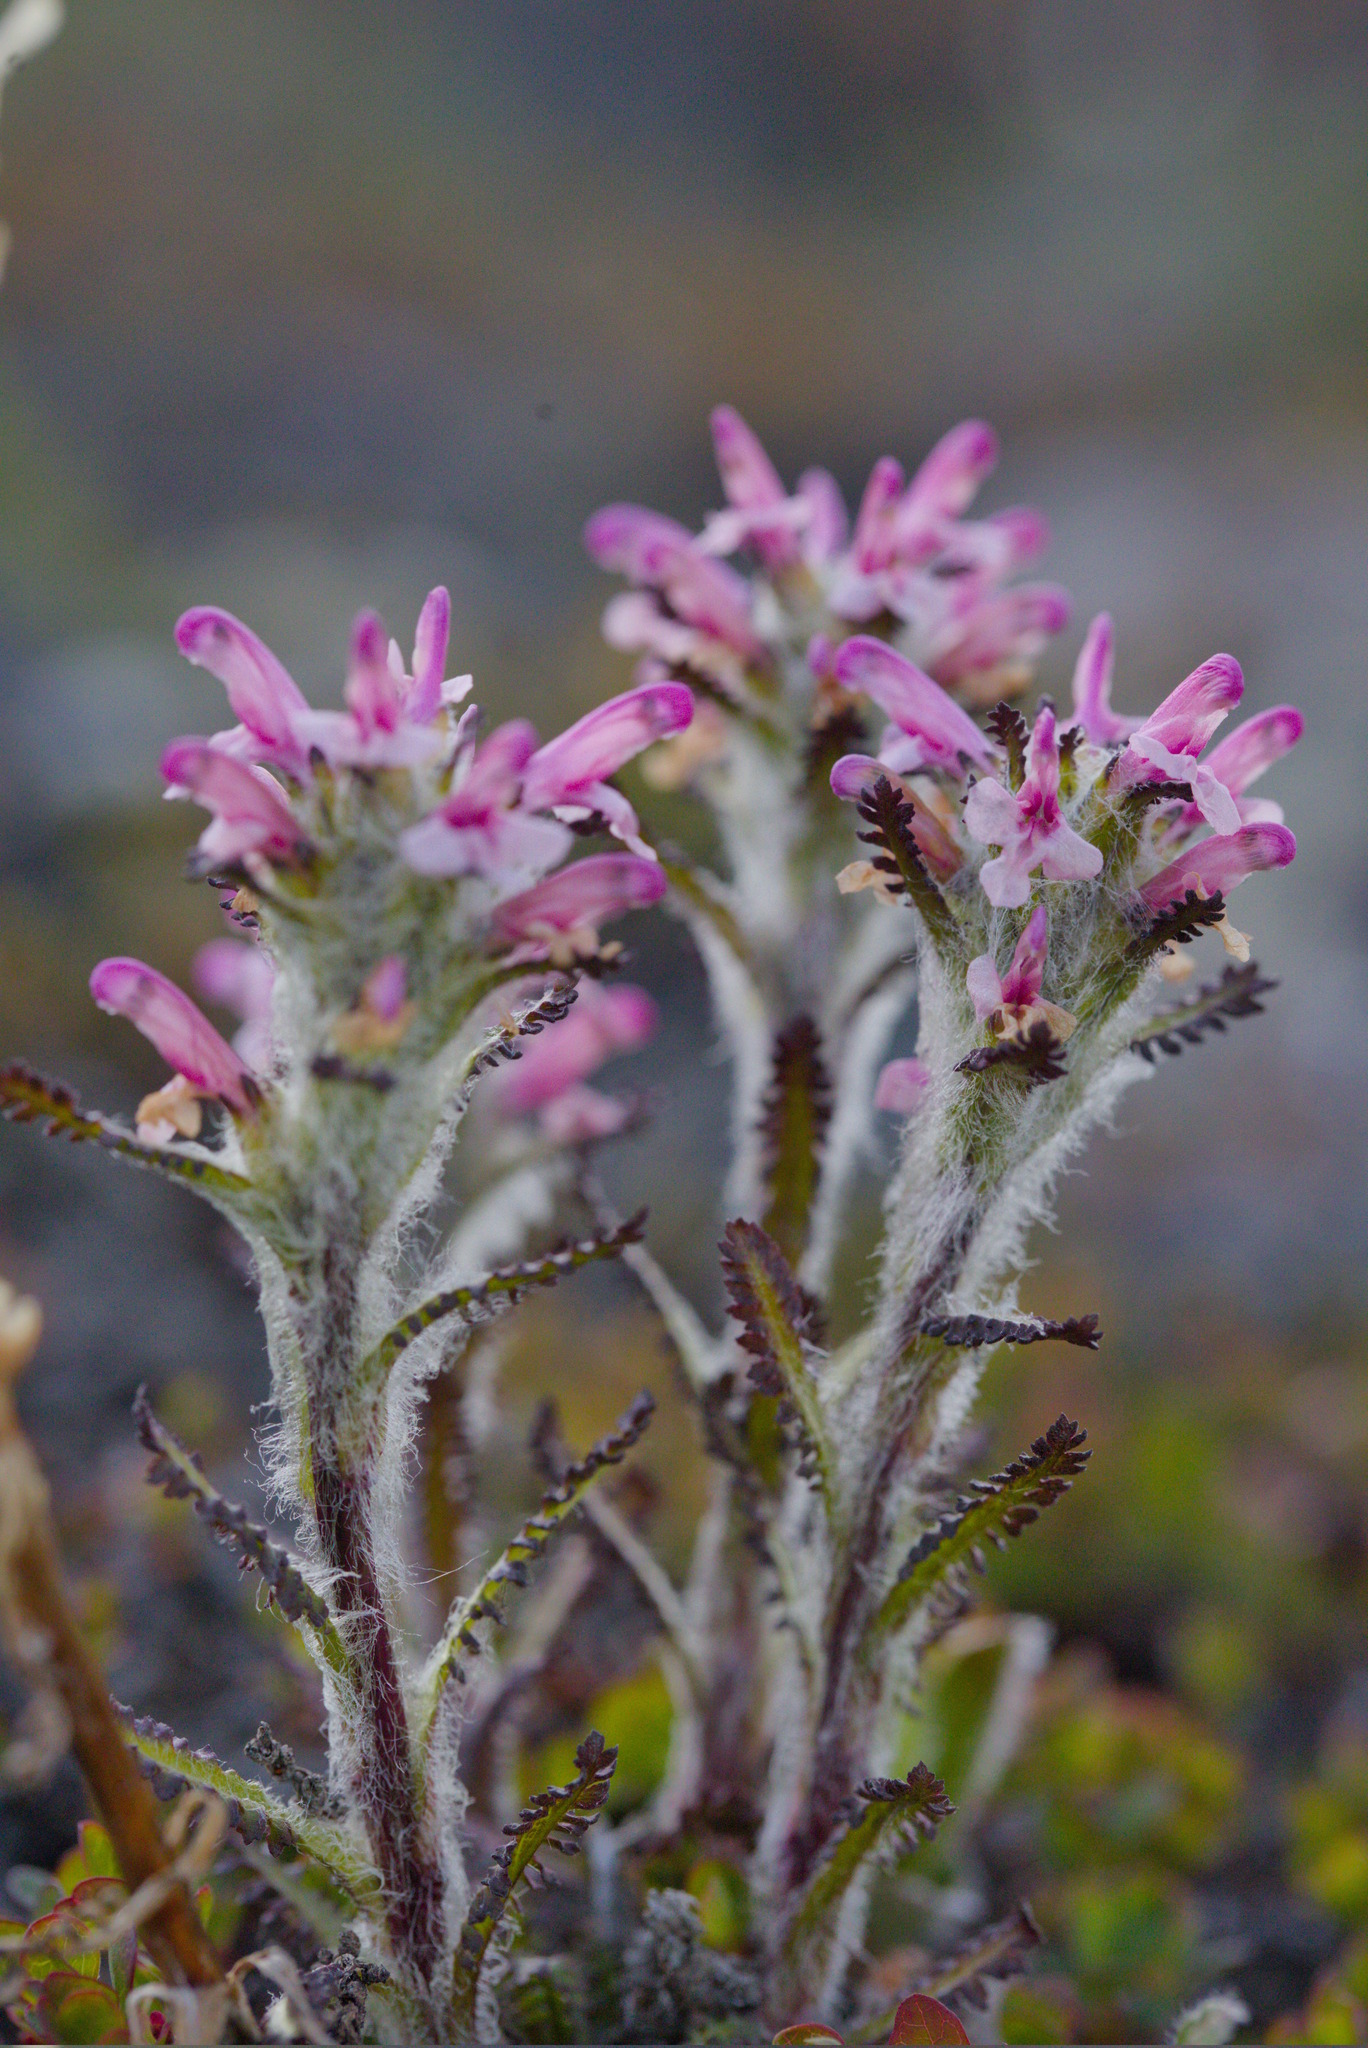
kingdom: Plantae
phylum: Tracheophyta
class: Magnoliopsida
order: Lamiales
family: Orobanchaceae
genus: Pedicularis
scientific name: Pedicularis hirsuta
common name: Hairy lousewort
